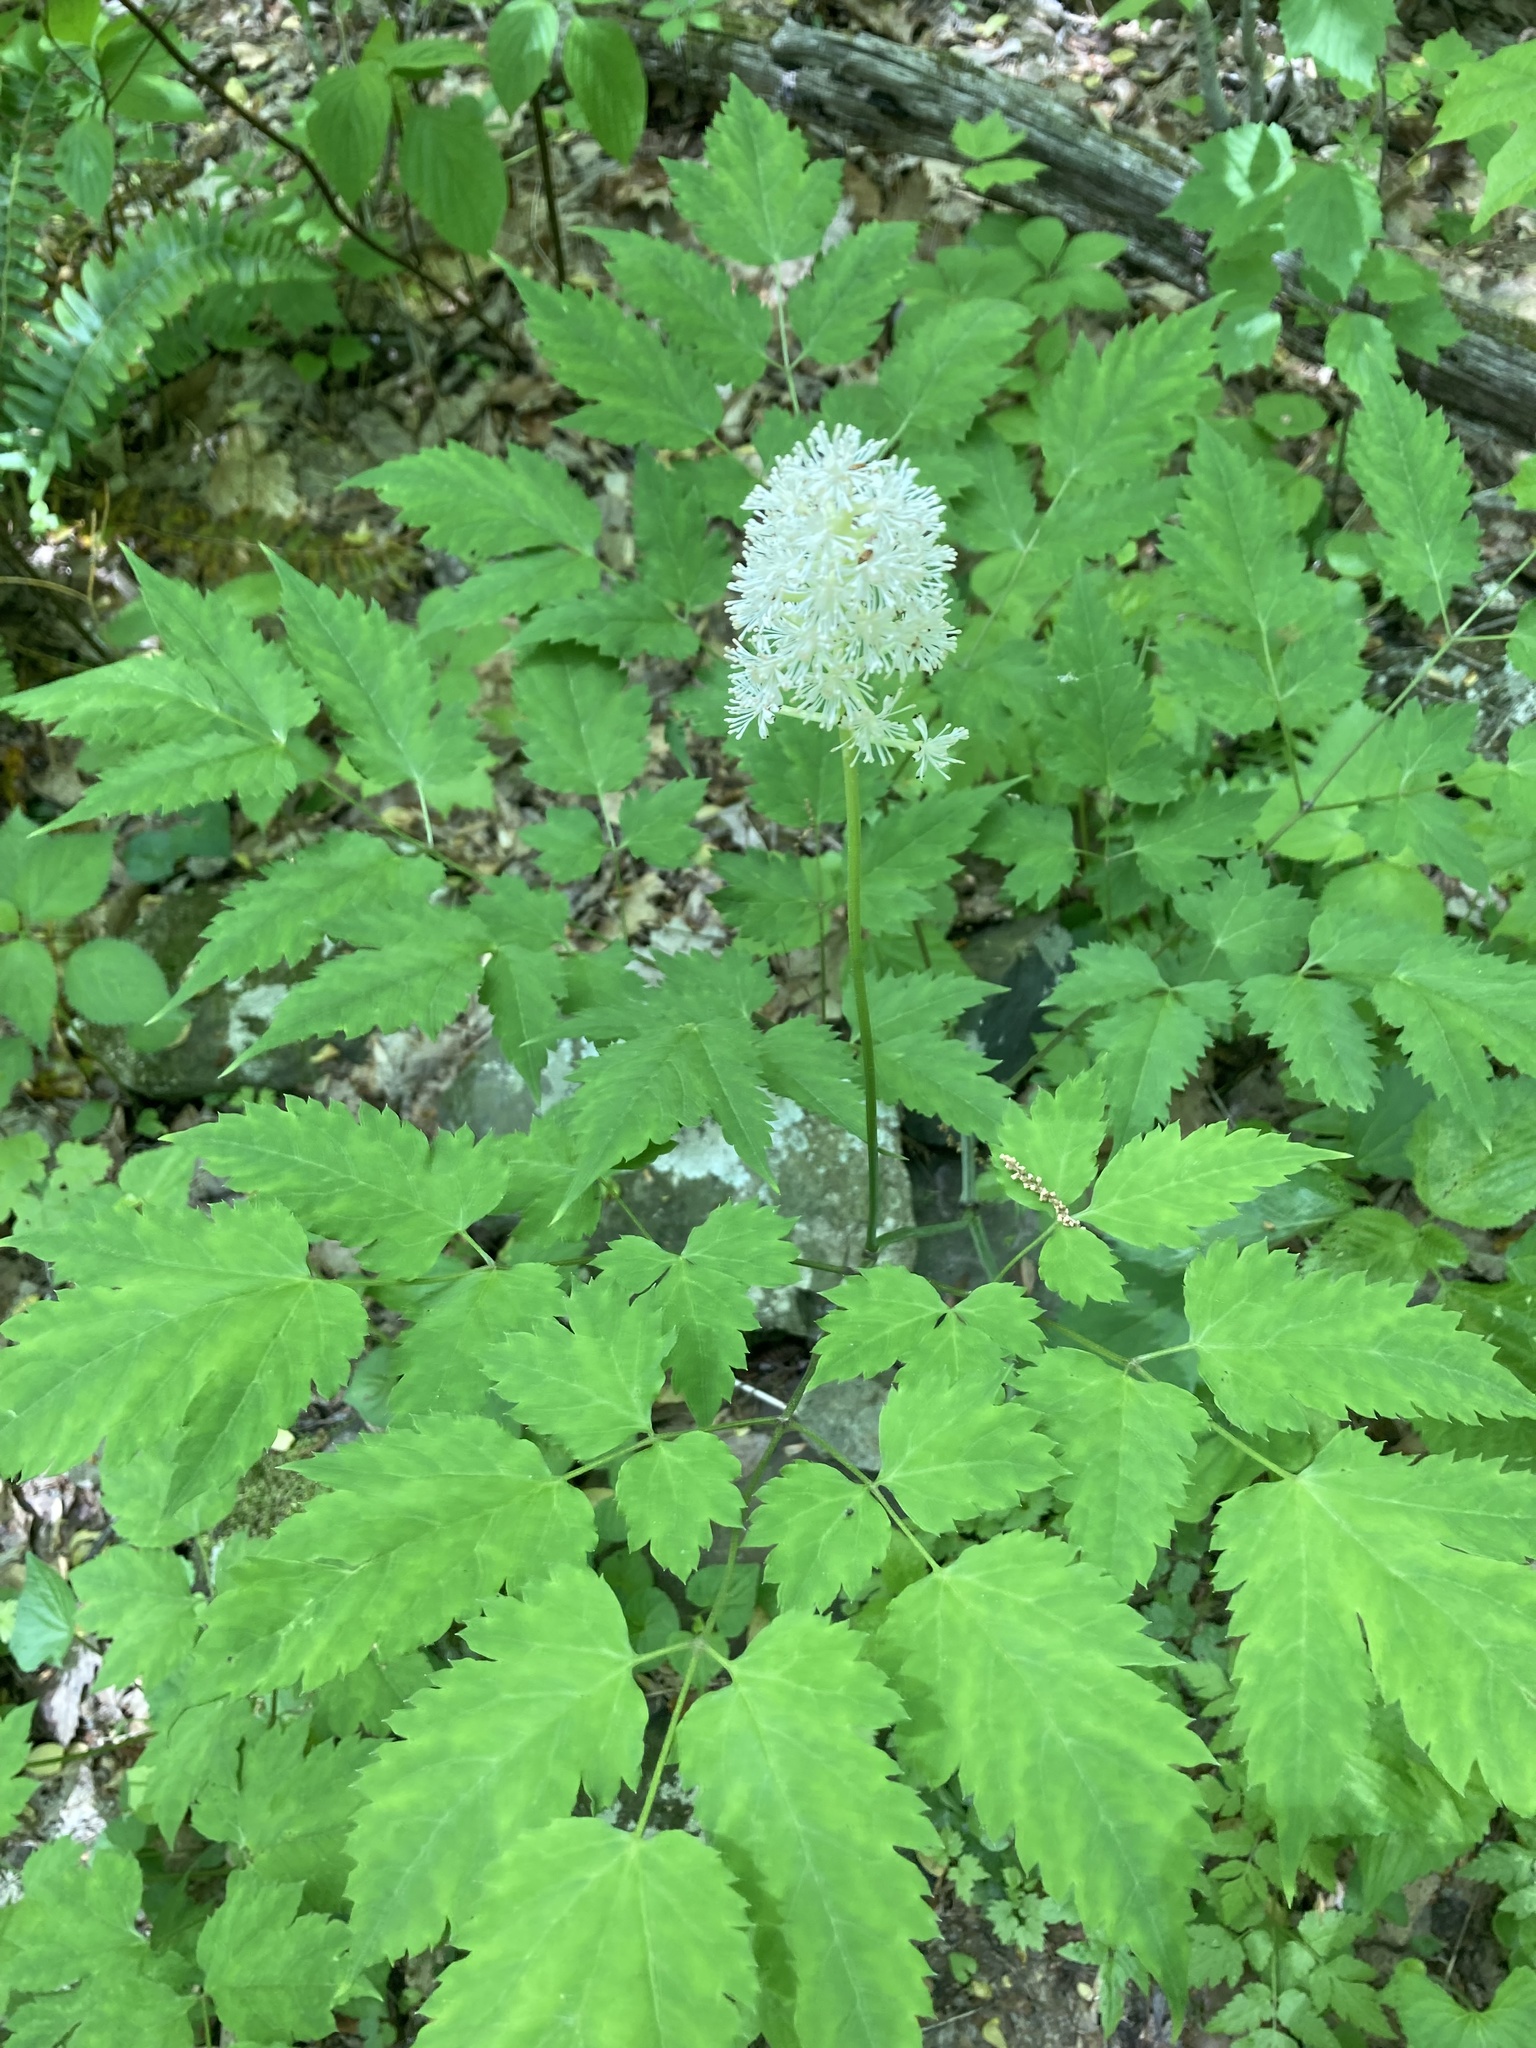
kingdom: Plantae
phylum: Tracheophyta
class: Magnoliopsida
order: Ranunculales
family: Ranunculaceae
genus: Actaea
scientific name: Actaea pachypoda
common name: Doll's-eyes
